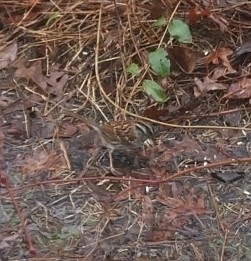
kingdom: Animalia
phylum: Chordata
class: Aves
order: Passeriformes
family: Passerellidae
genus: Zonotrichia
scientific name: Zonotrichia albicollis
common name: White-throated sparrow
